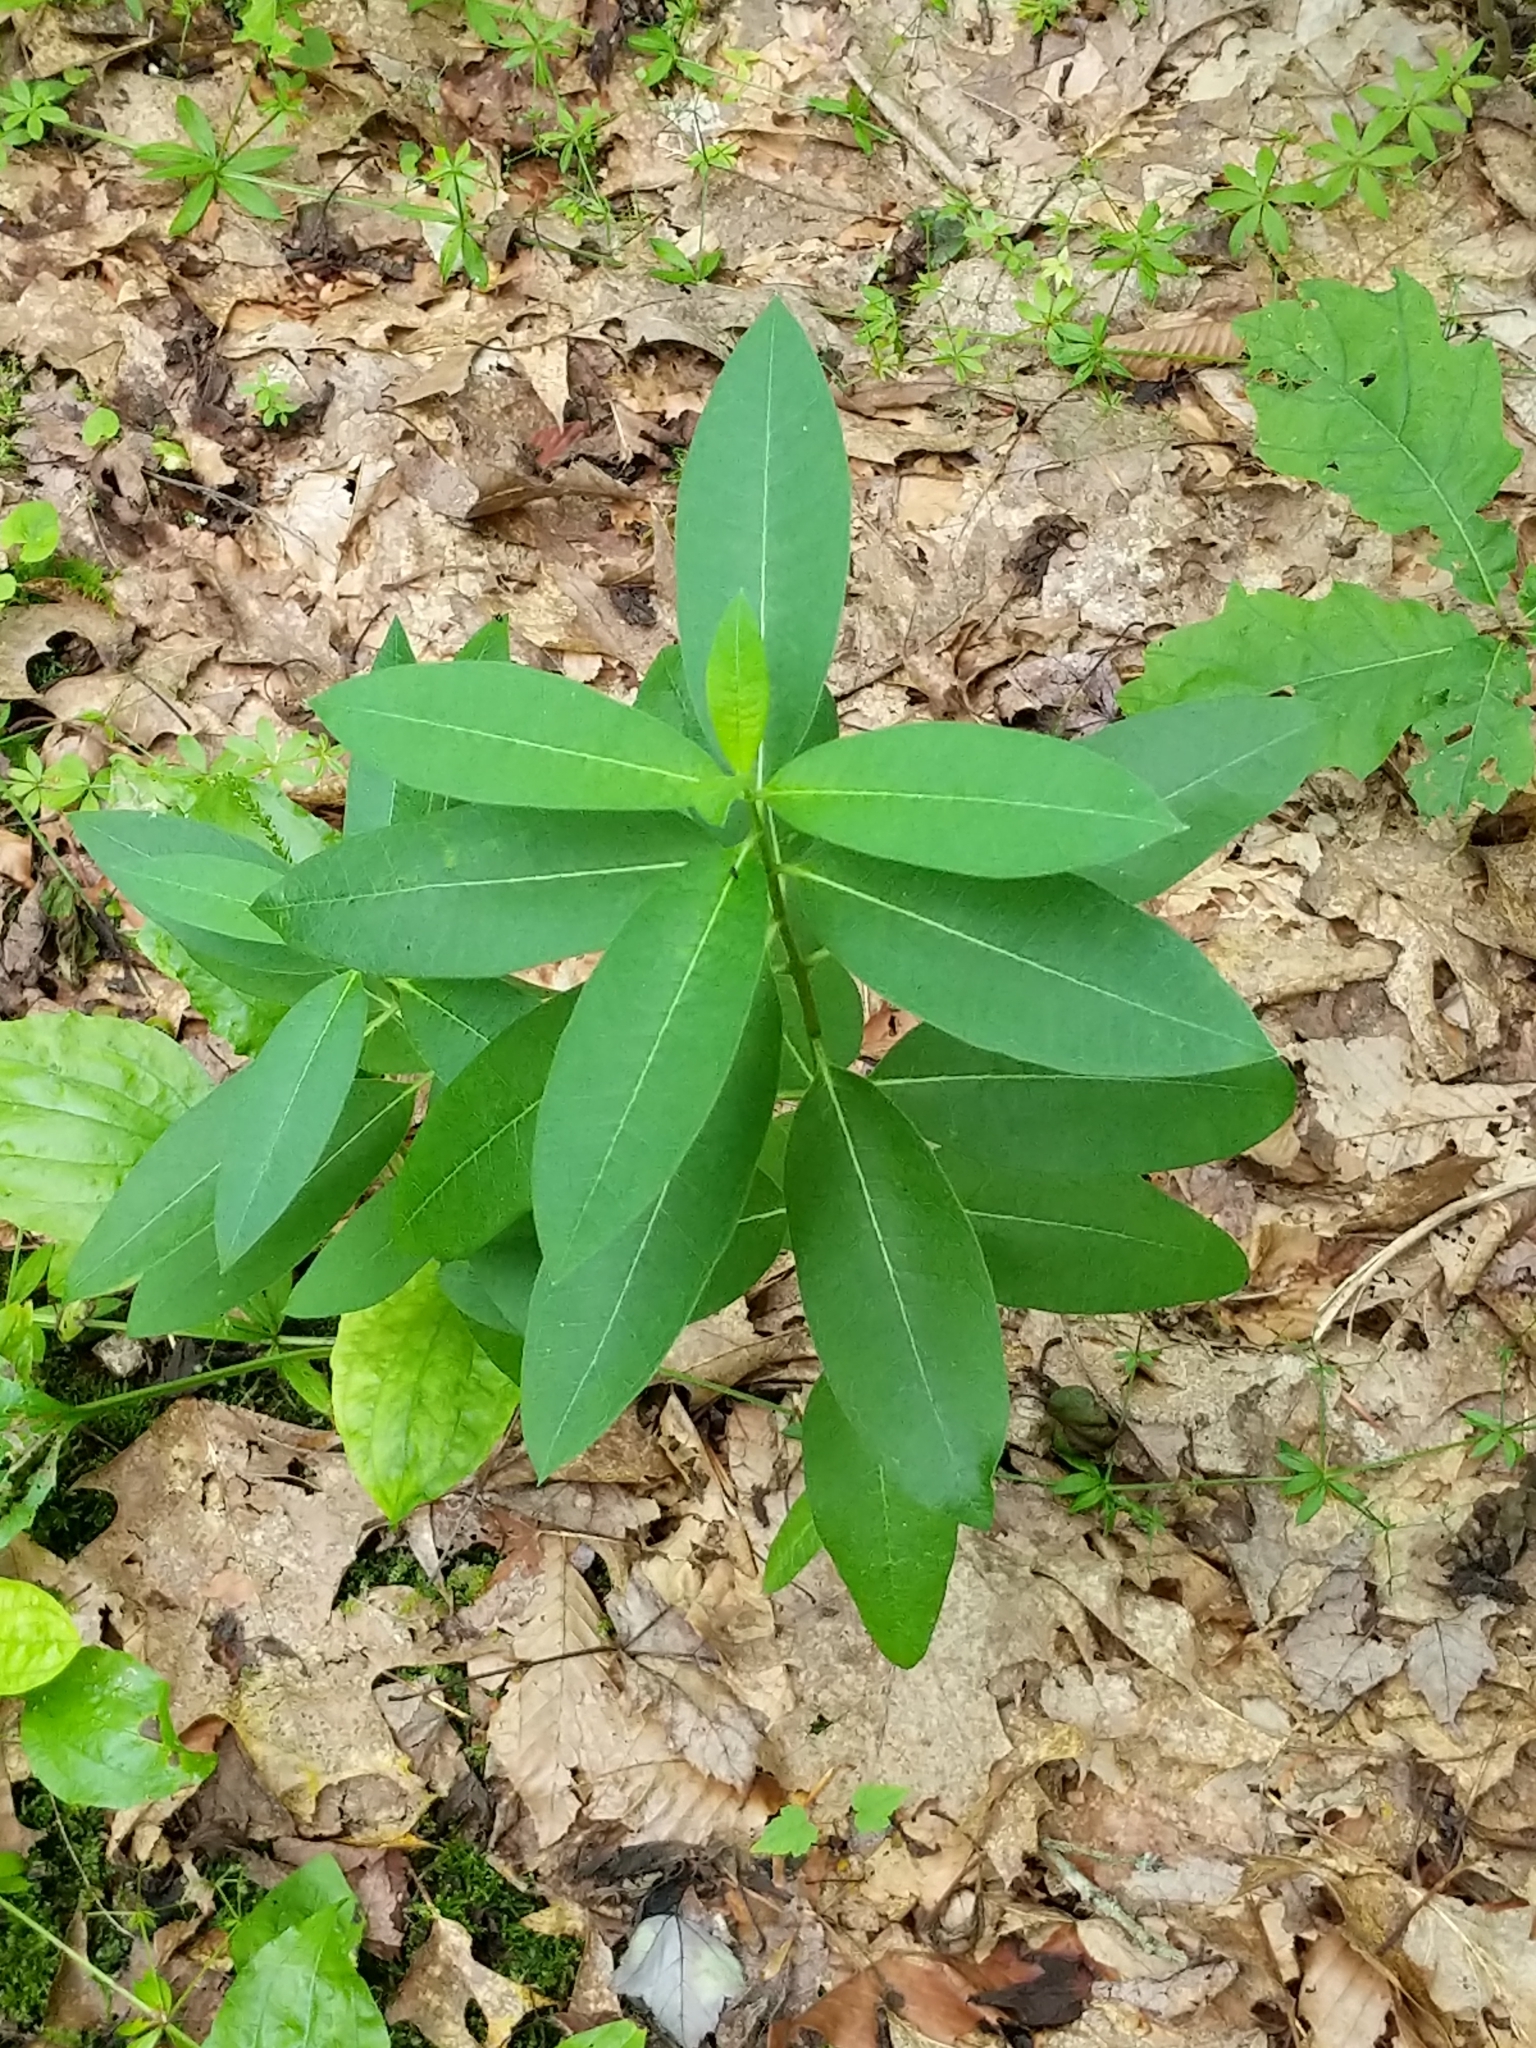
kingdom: Plantae
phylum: Tracheophyta
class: Magnoliopsida
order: Gentianales
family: Apocynaceae
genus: Asclepias
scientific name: Asclepias syriaca
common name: Common milkweed
